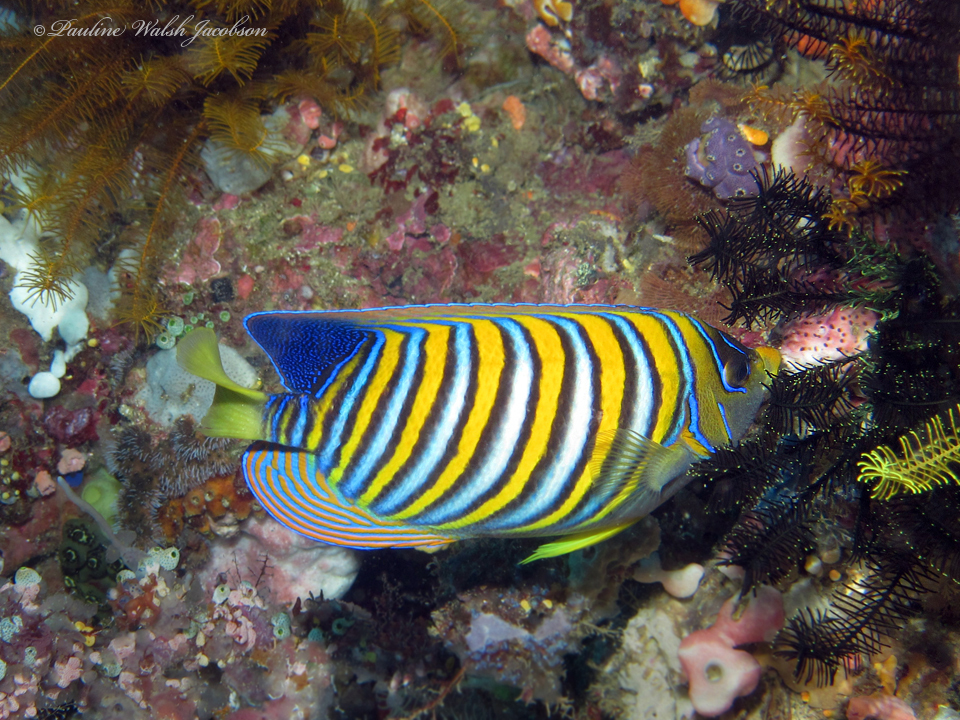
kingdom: Animalia
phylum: Chordata
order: Perciformes
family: Pomacanthidae
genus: Pygoplites
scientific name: Pygoplites diacanthus
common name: Regal angelfish
